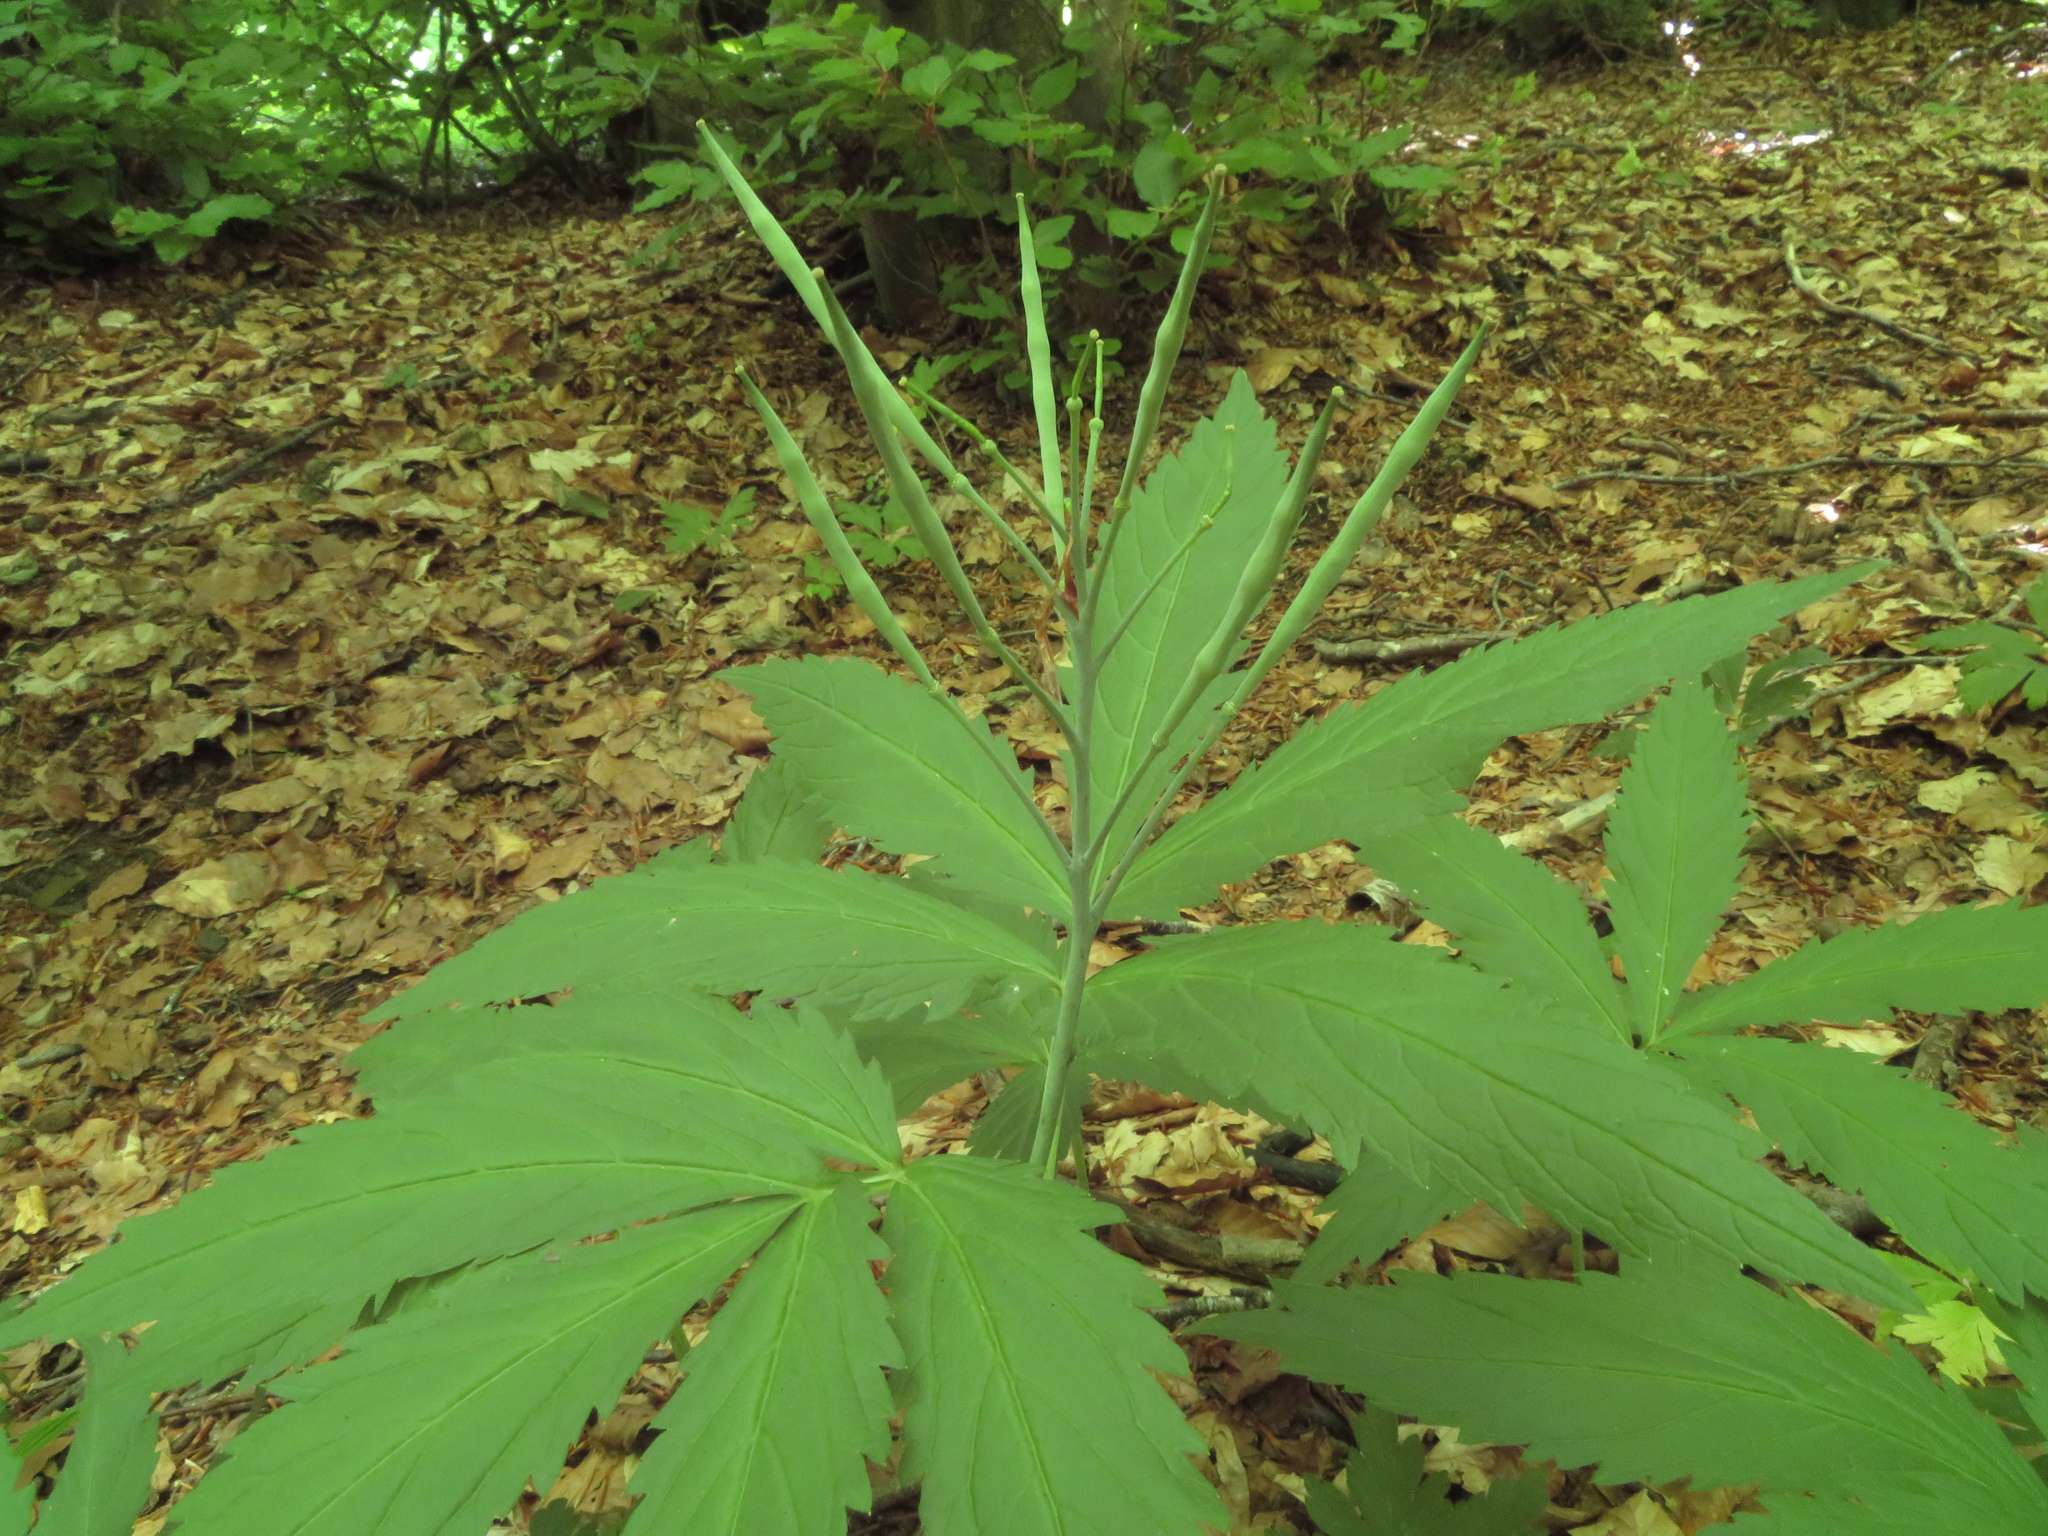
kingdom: Plantae
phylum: Tracheophyta
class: Magnoliopsida
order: Brassicales
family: Brassicaceae
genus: Cardamine
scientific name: Cardamine heptaphylla
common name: Pinnate coralroot
